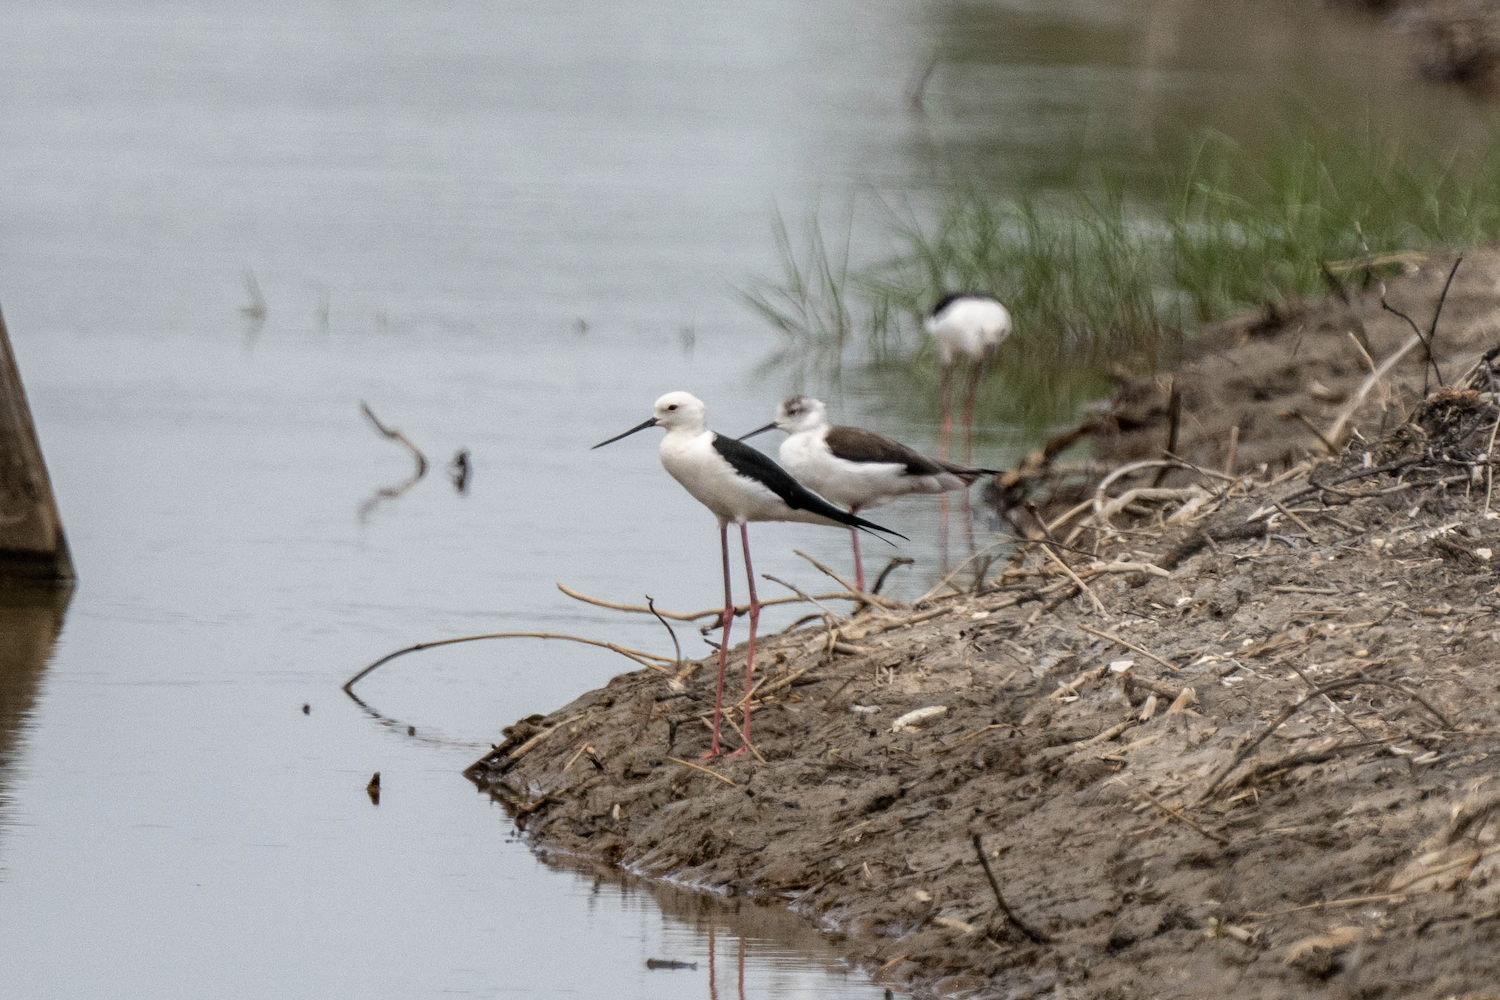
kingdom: Animalia
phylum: Chordata
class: Aves
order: Charadriiformes
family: Recurvirostridae
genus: Himantopus
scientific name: Himantopus himantopus
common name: Black-winged stilt
